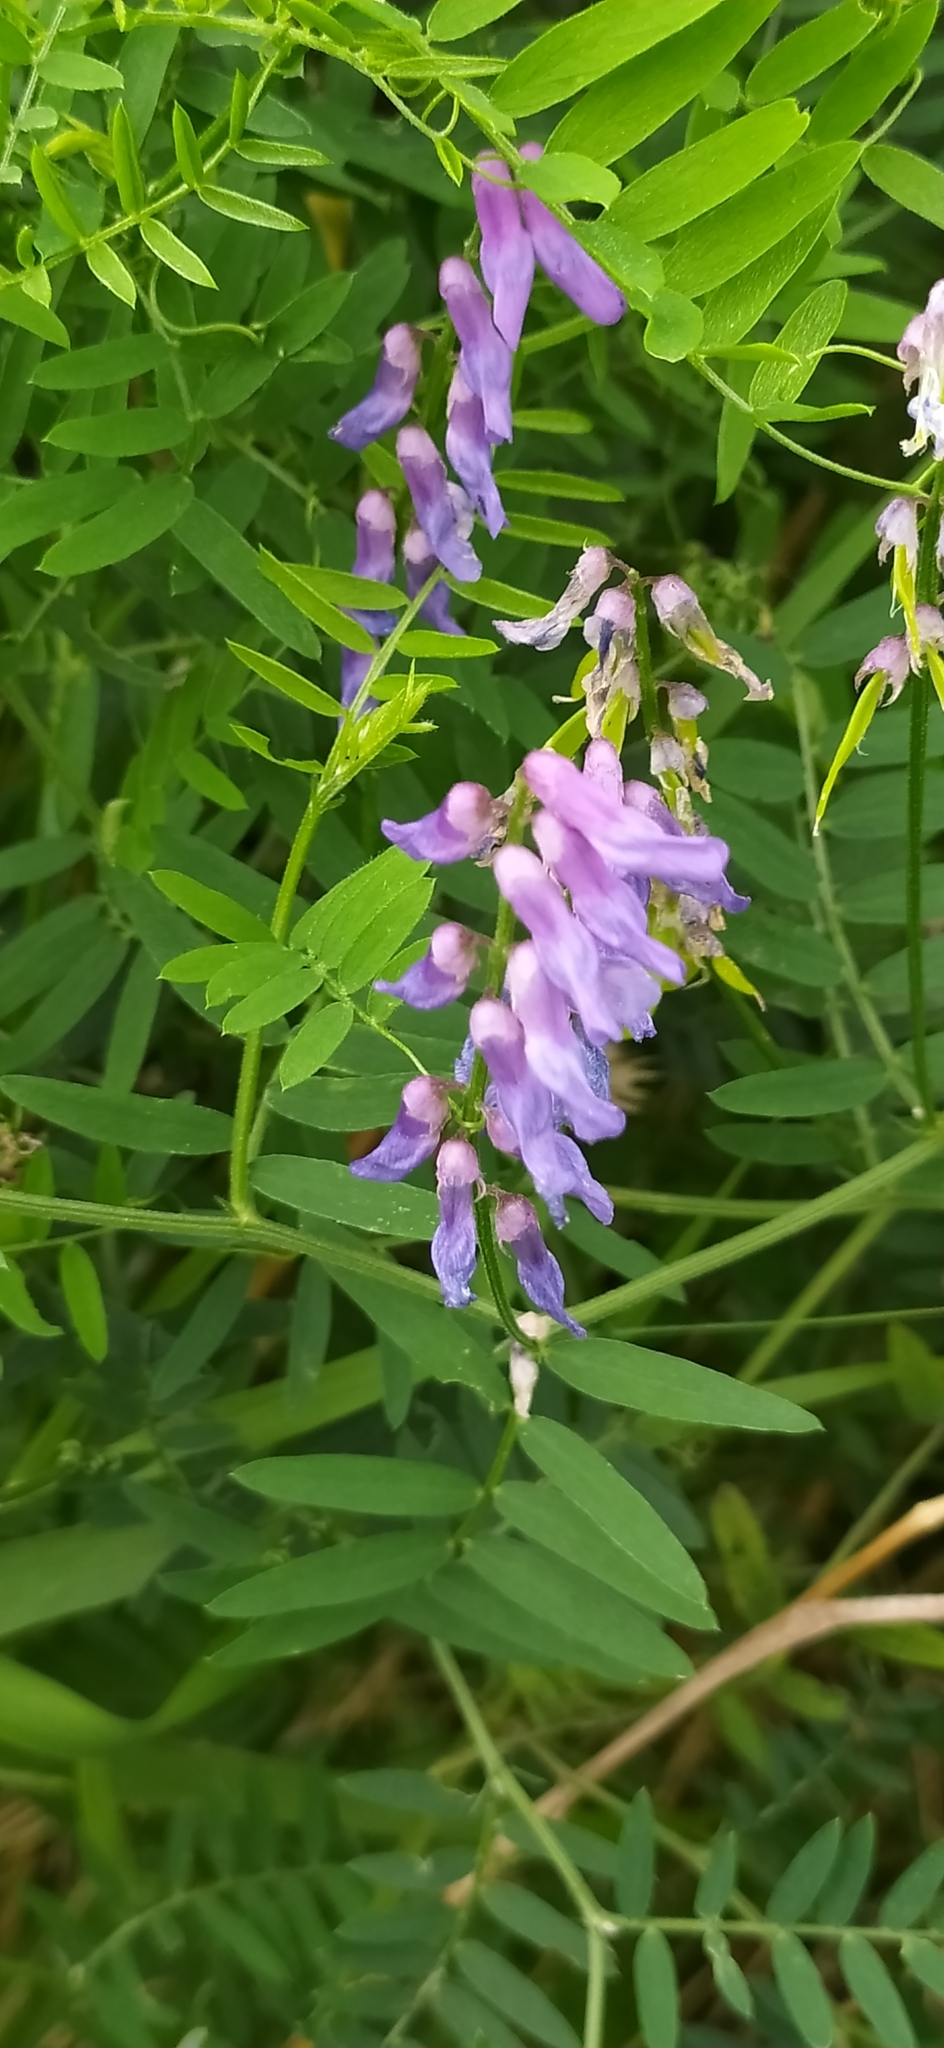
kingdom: Plantae
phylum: Tracheophyta
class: Magnoliopsida
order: Fabales
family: Fabaceae
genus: Vicia
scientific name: Vicia cracca
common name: Bird vetch
